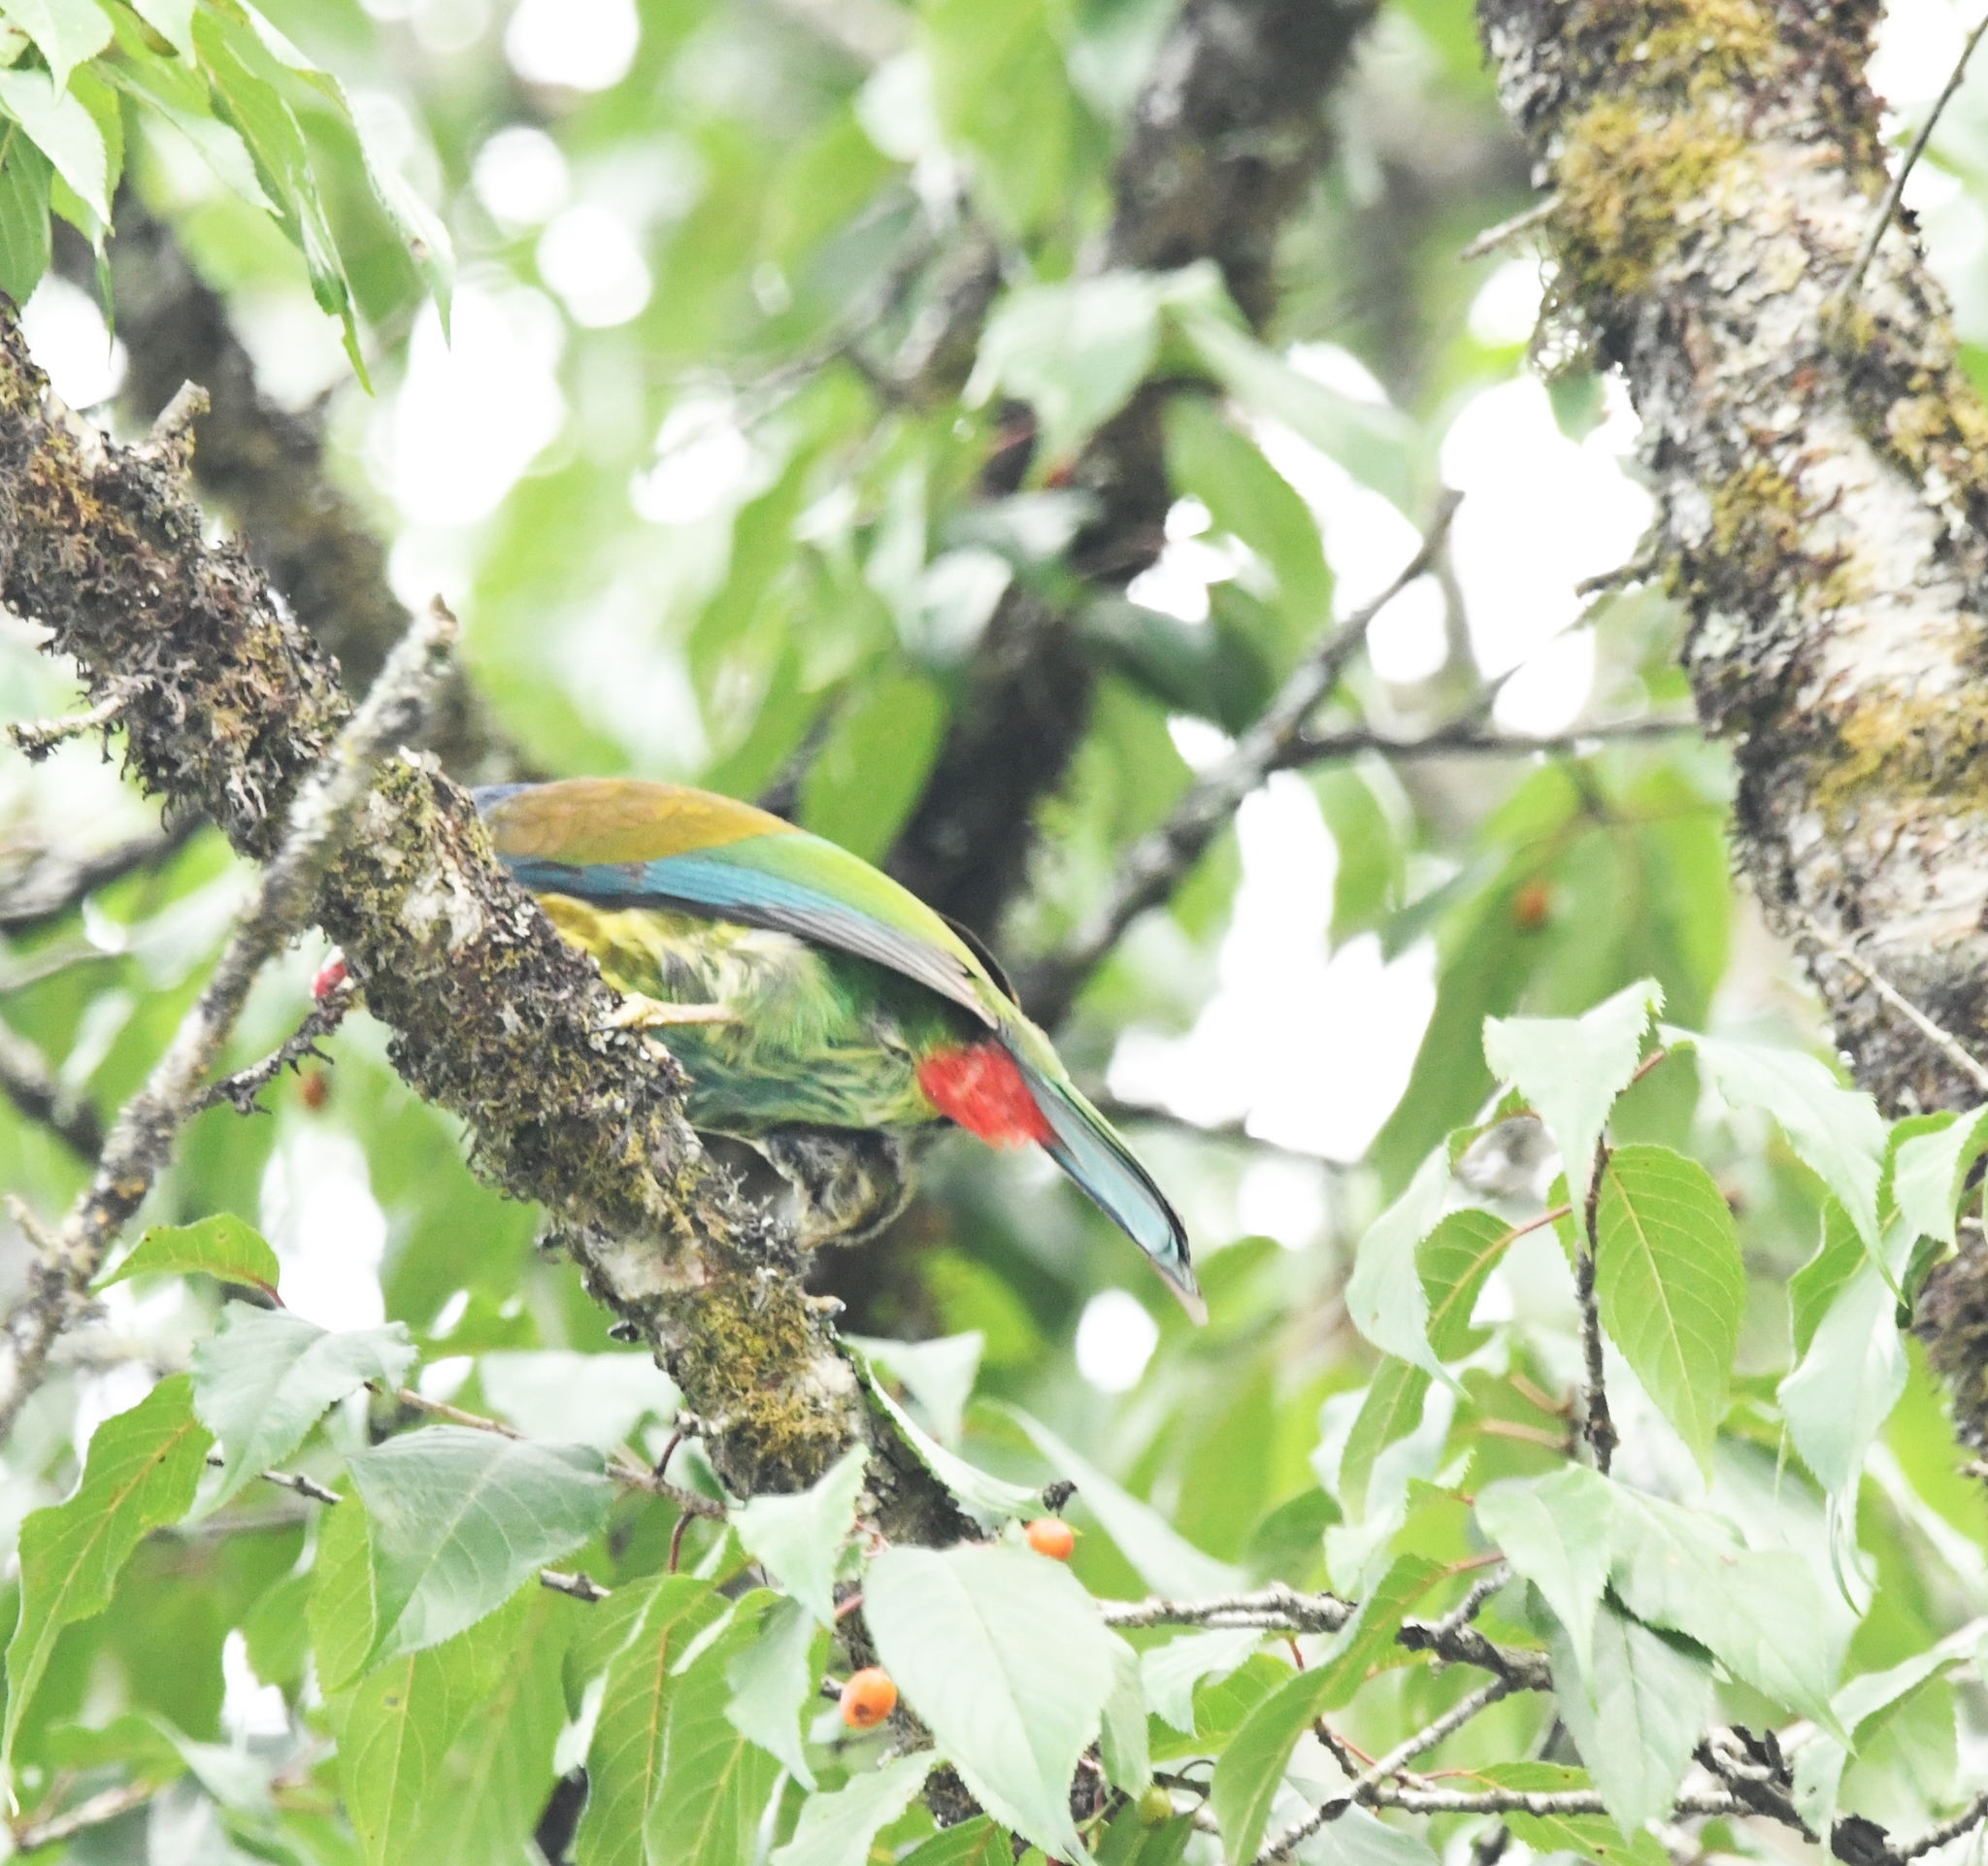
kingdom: Animalia
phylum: Chordata
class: Aves
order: Piciformes
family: Megalaimidae
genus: Psilopogon
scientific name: Psilopogon virens
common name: Great barbet
